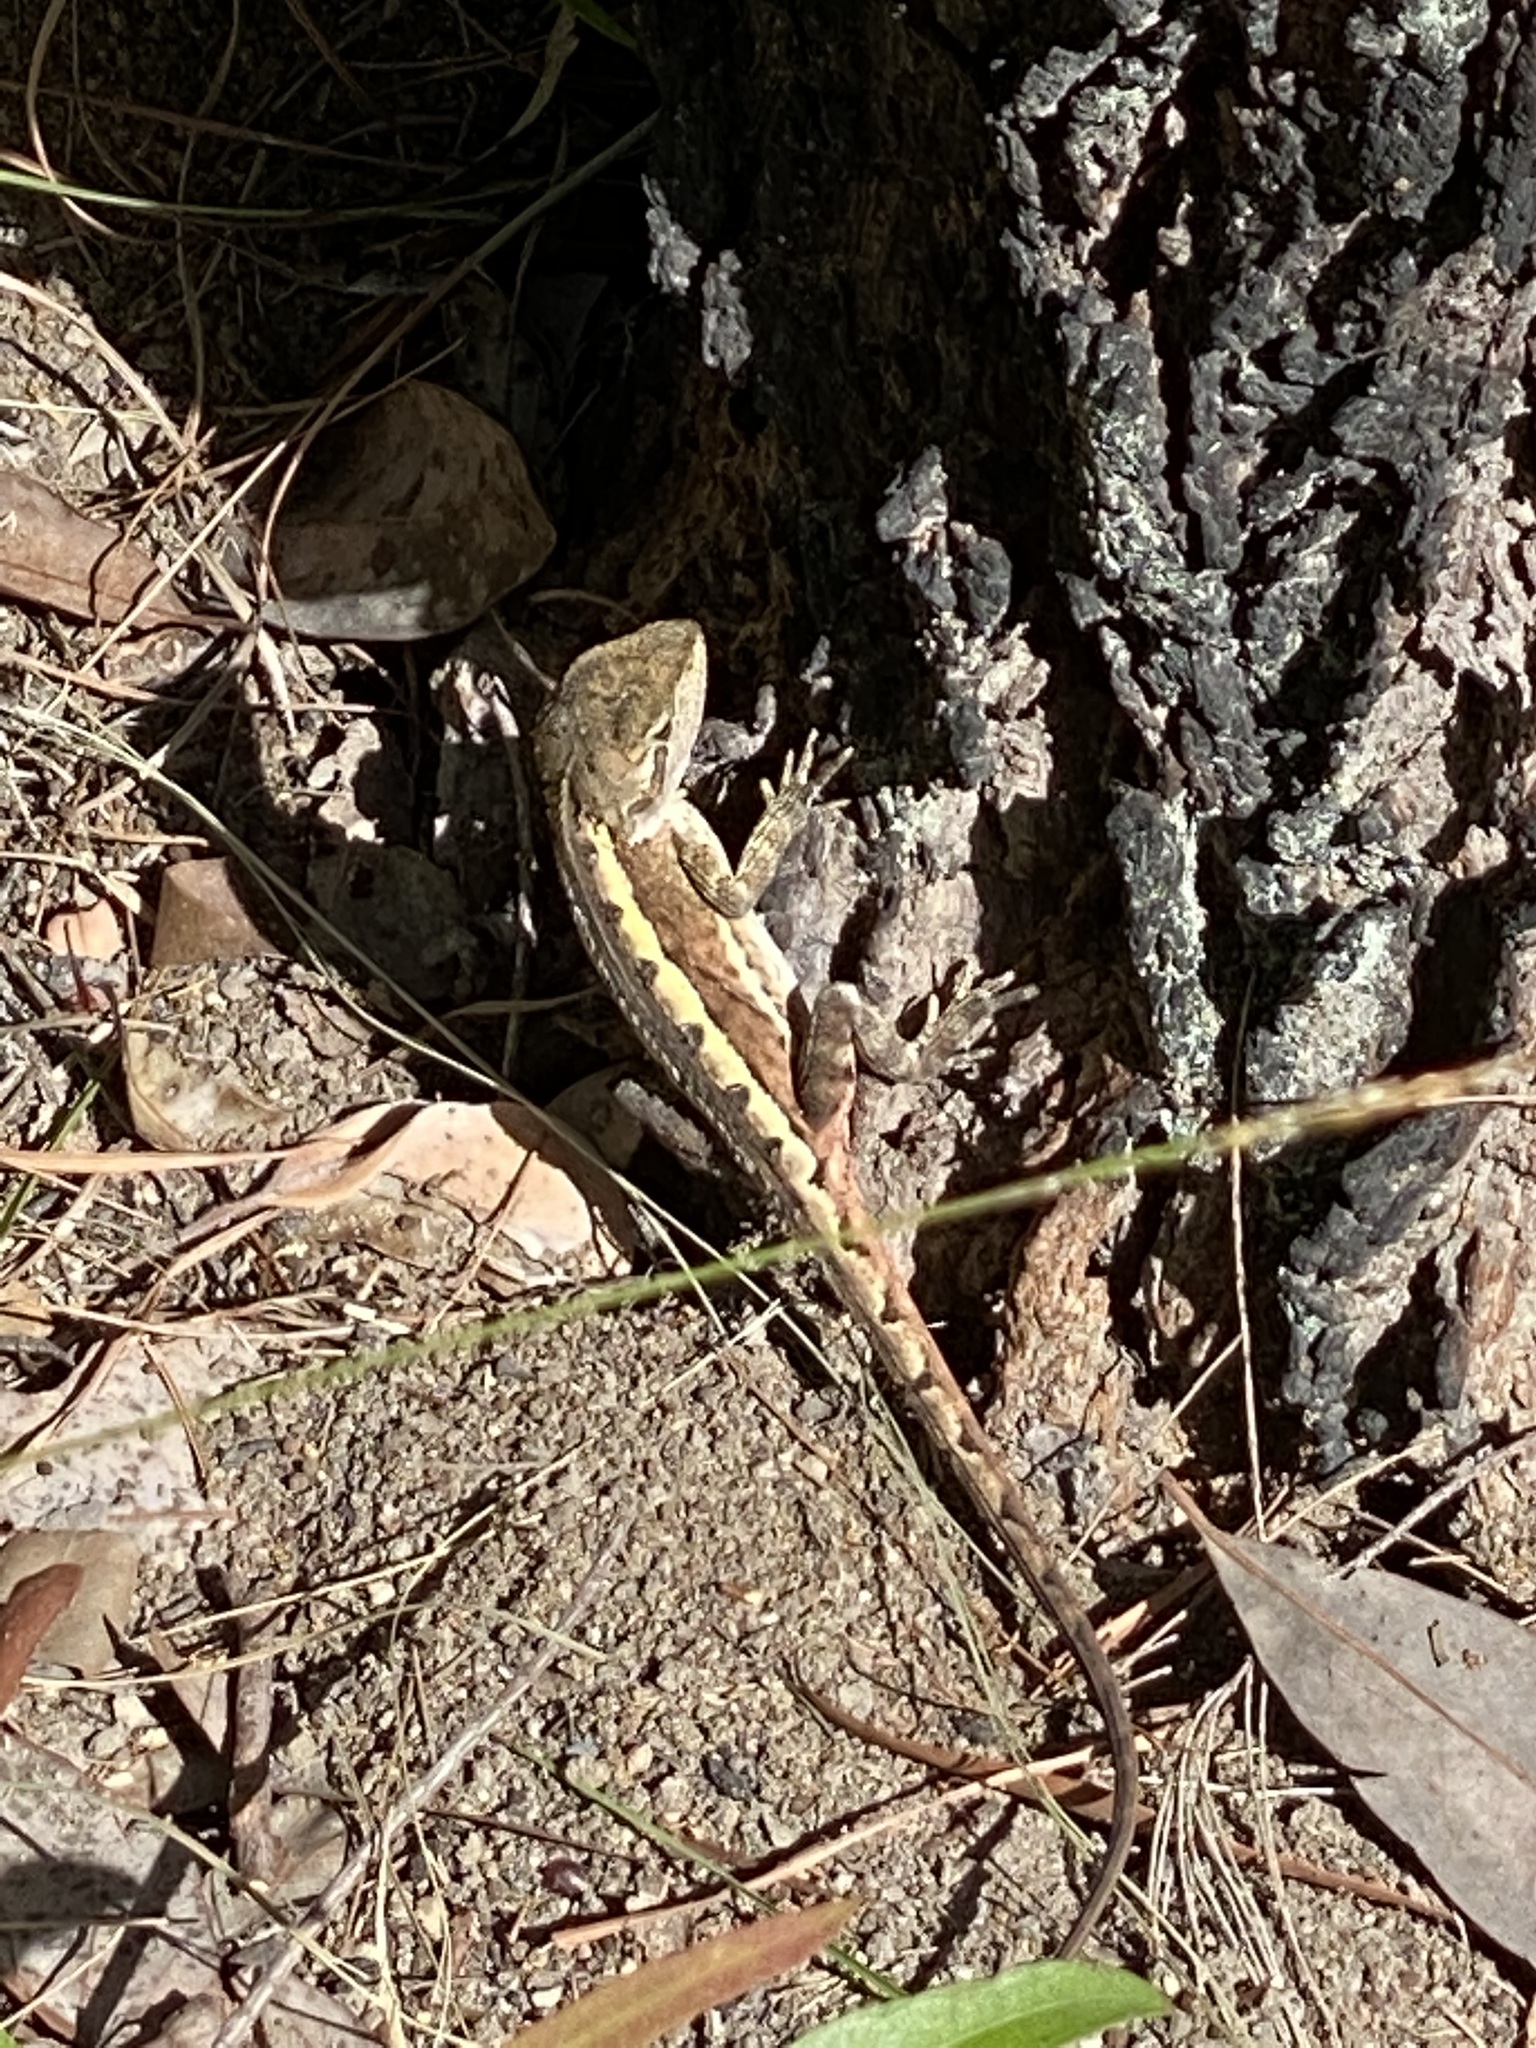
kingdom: Animalia
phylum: Chordata
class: Squamata
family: Agamidae
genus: Diporiphora
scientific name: Diporiphora phaeospinosa
